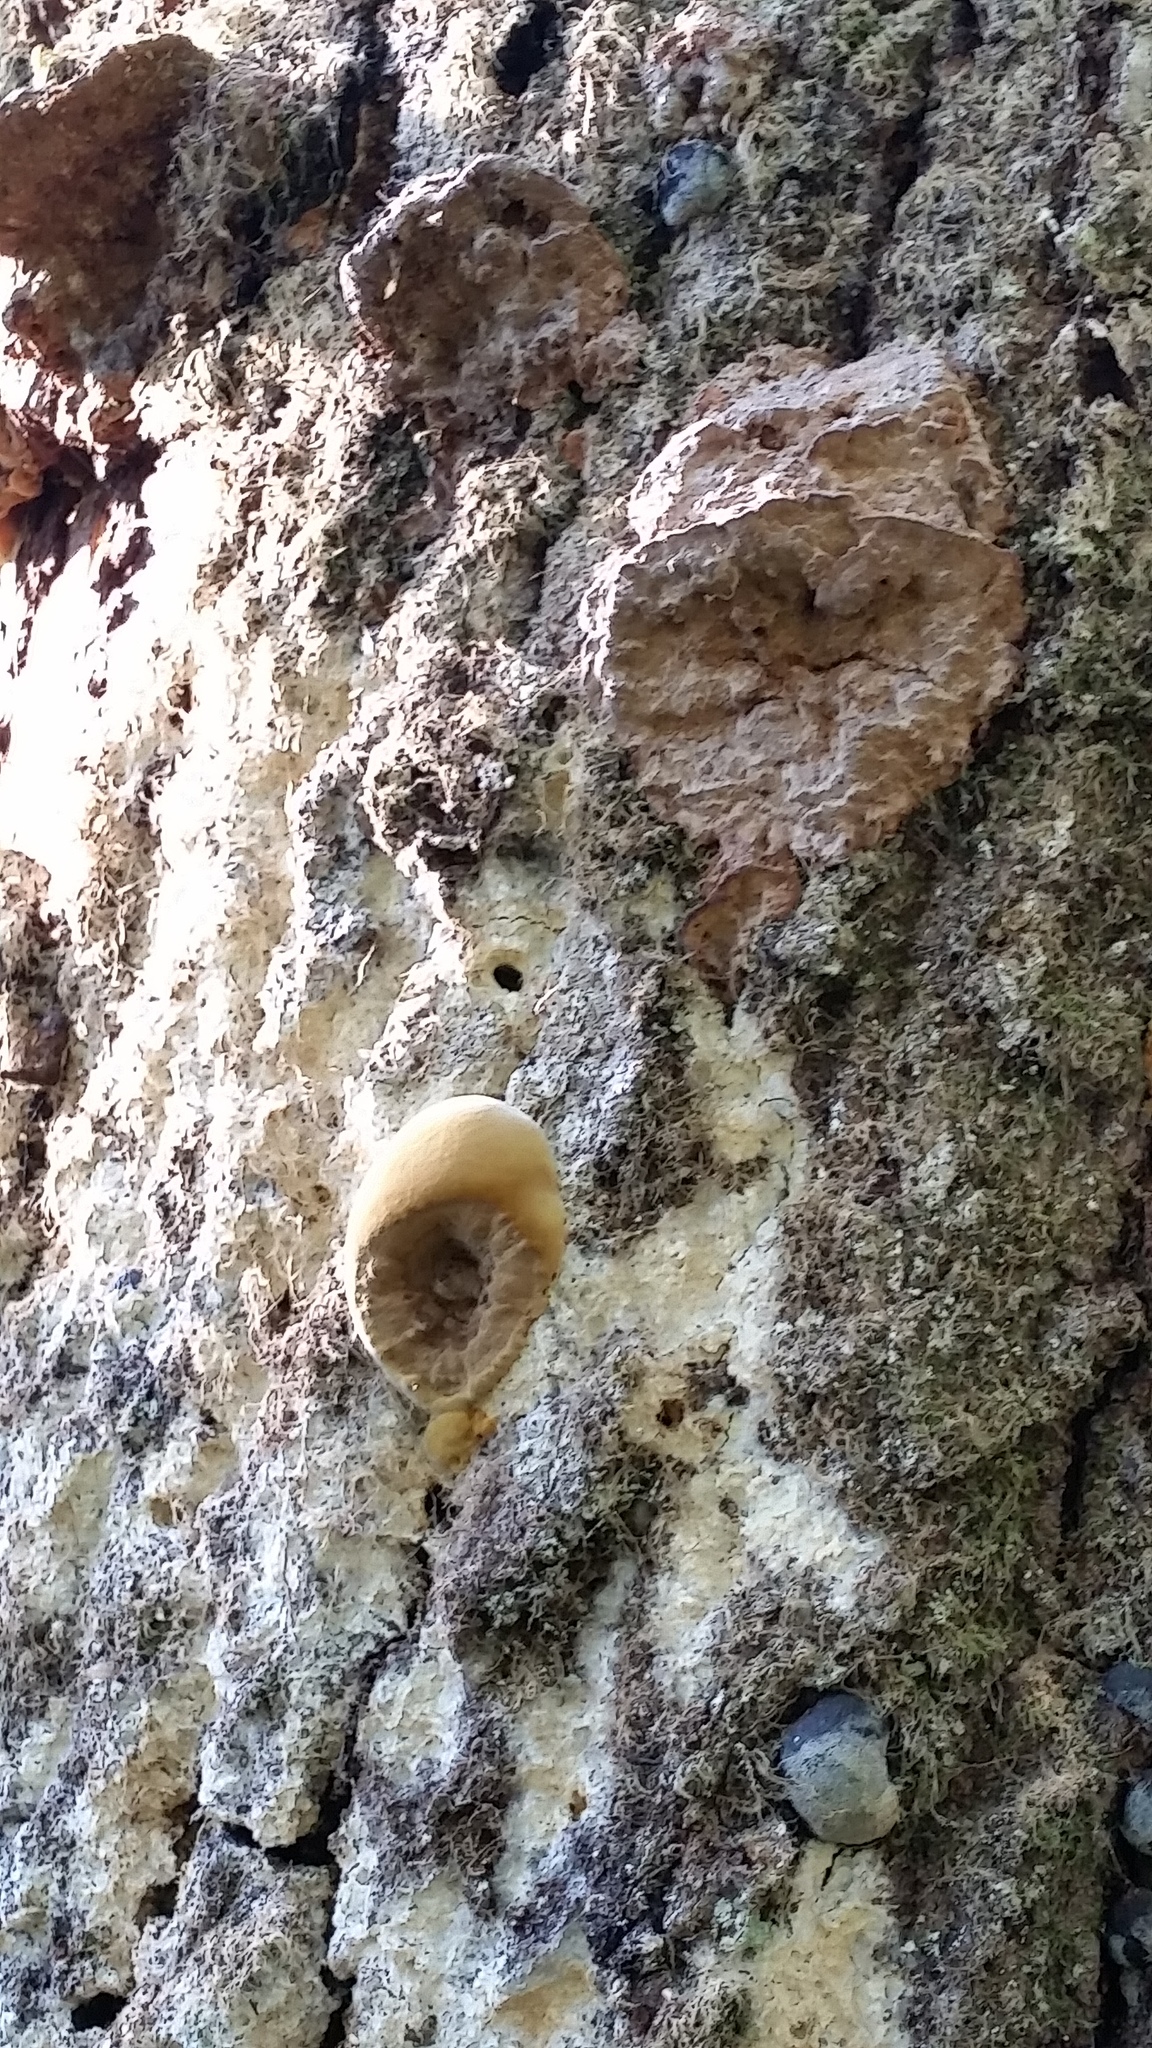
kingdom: Fungi
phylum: Basidiomycota
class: Agaricomycetes
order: Hymenochaetales
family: Hymenochaetaceae
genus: Phellinus
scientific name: Phellinus gilvus
